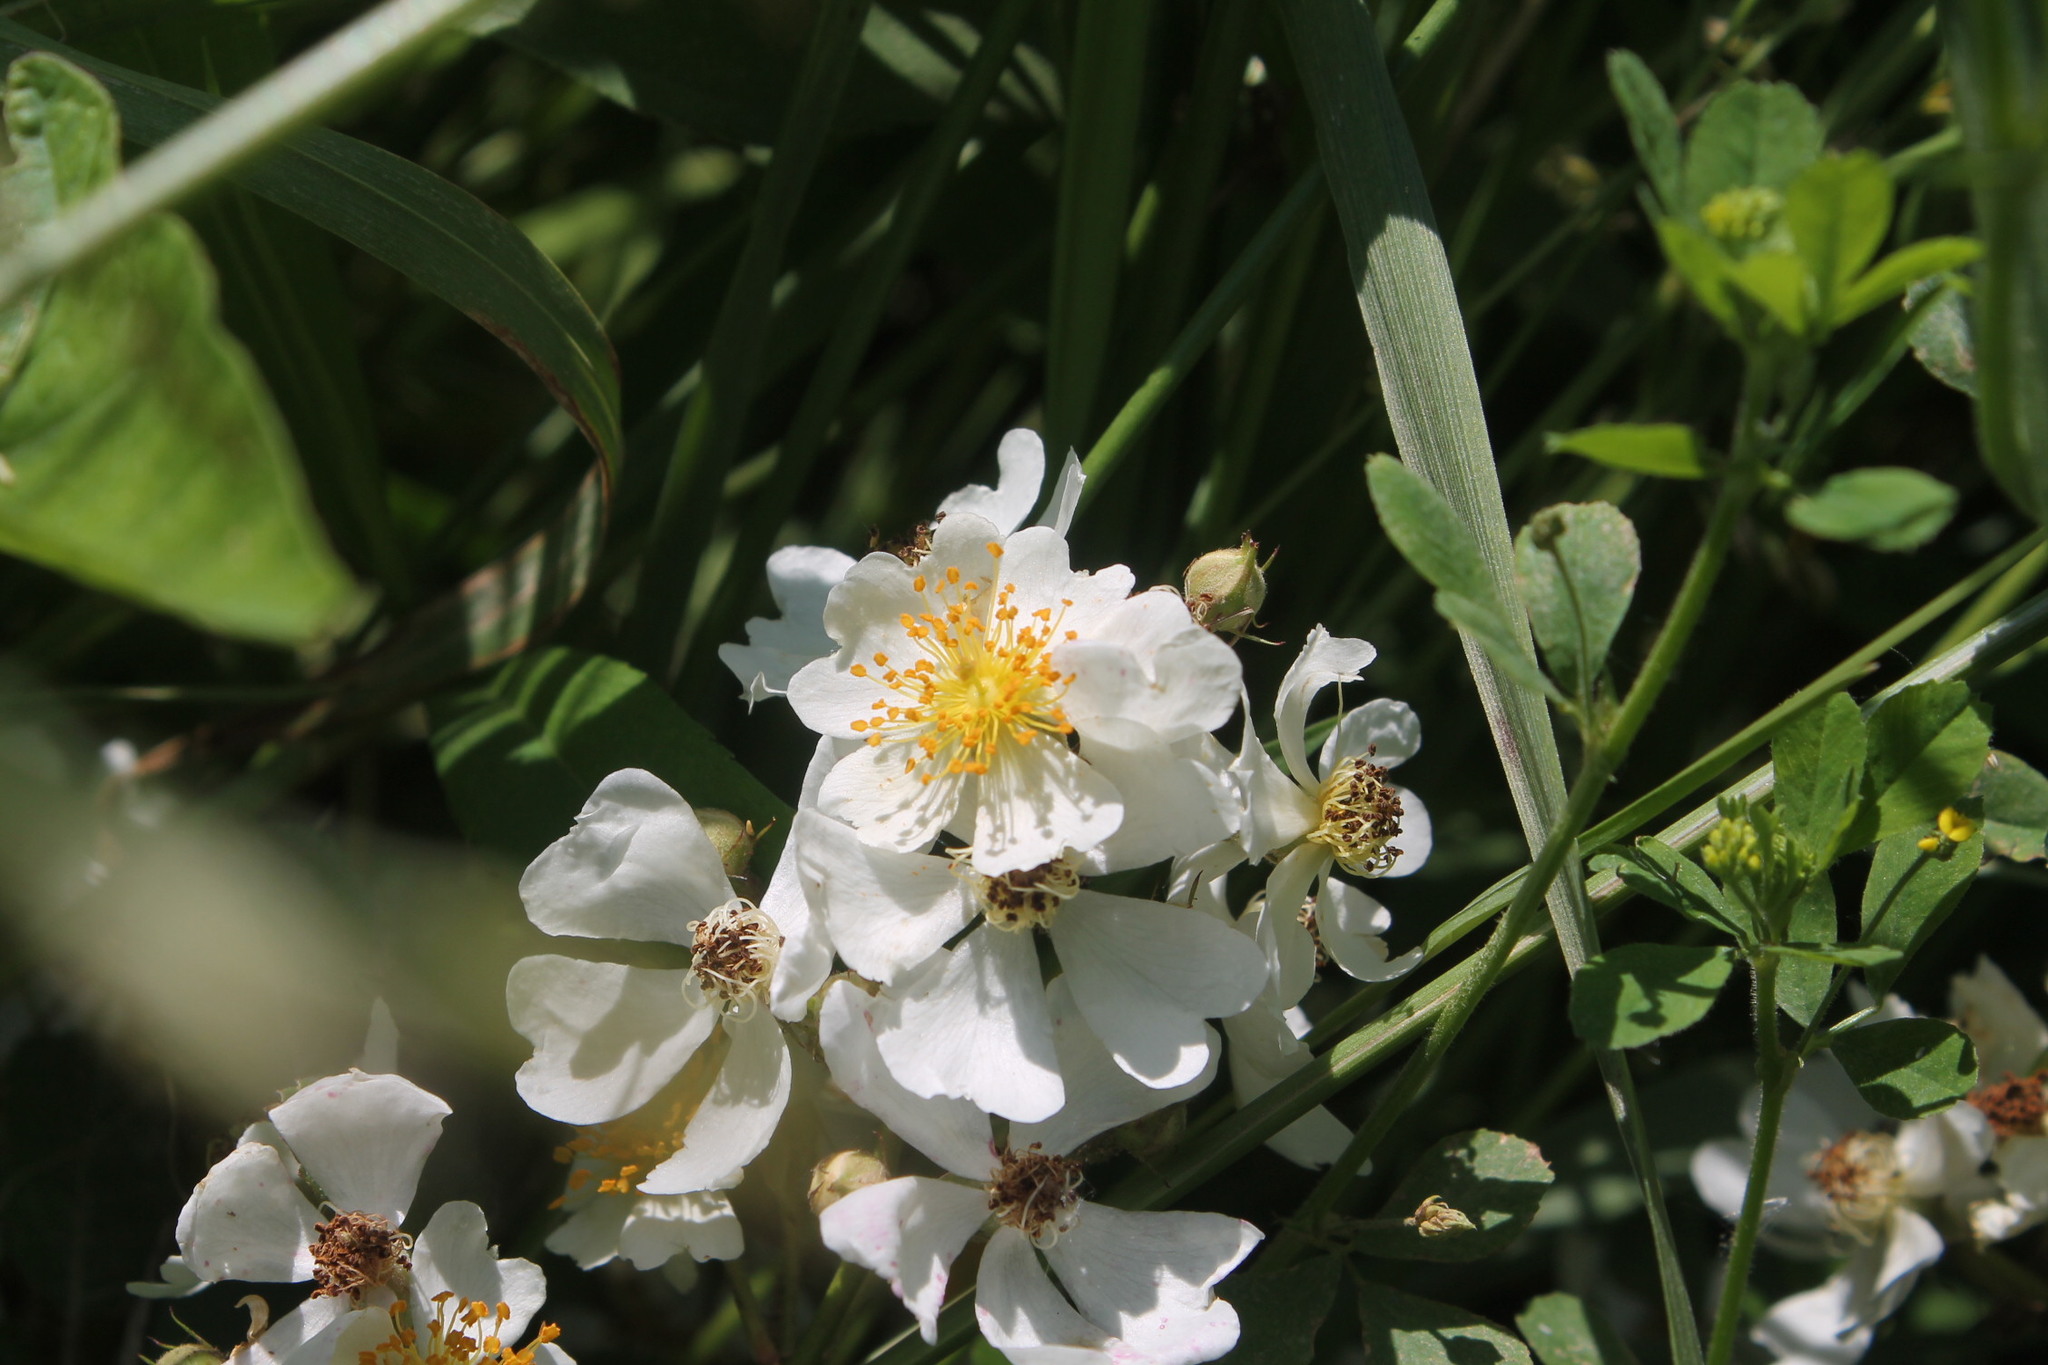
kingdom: Plantae
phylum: Tracheophyta
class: Magnoliopsida
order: Rosales
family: Rosaceae
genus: Rosa
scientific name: Rosa multiflora
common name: Multiflora rose
